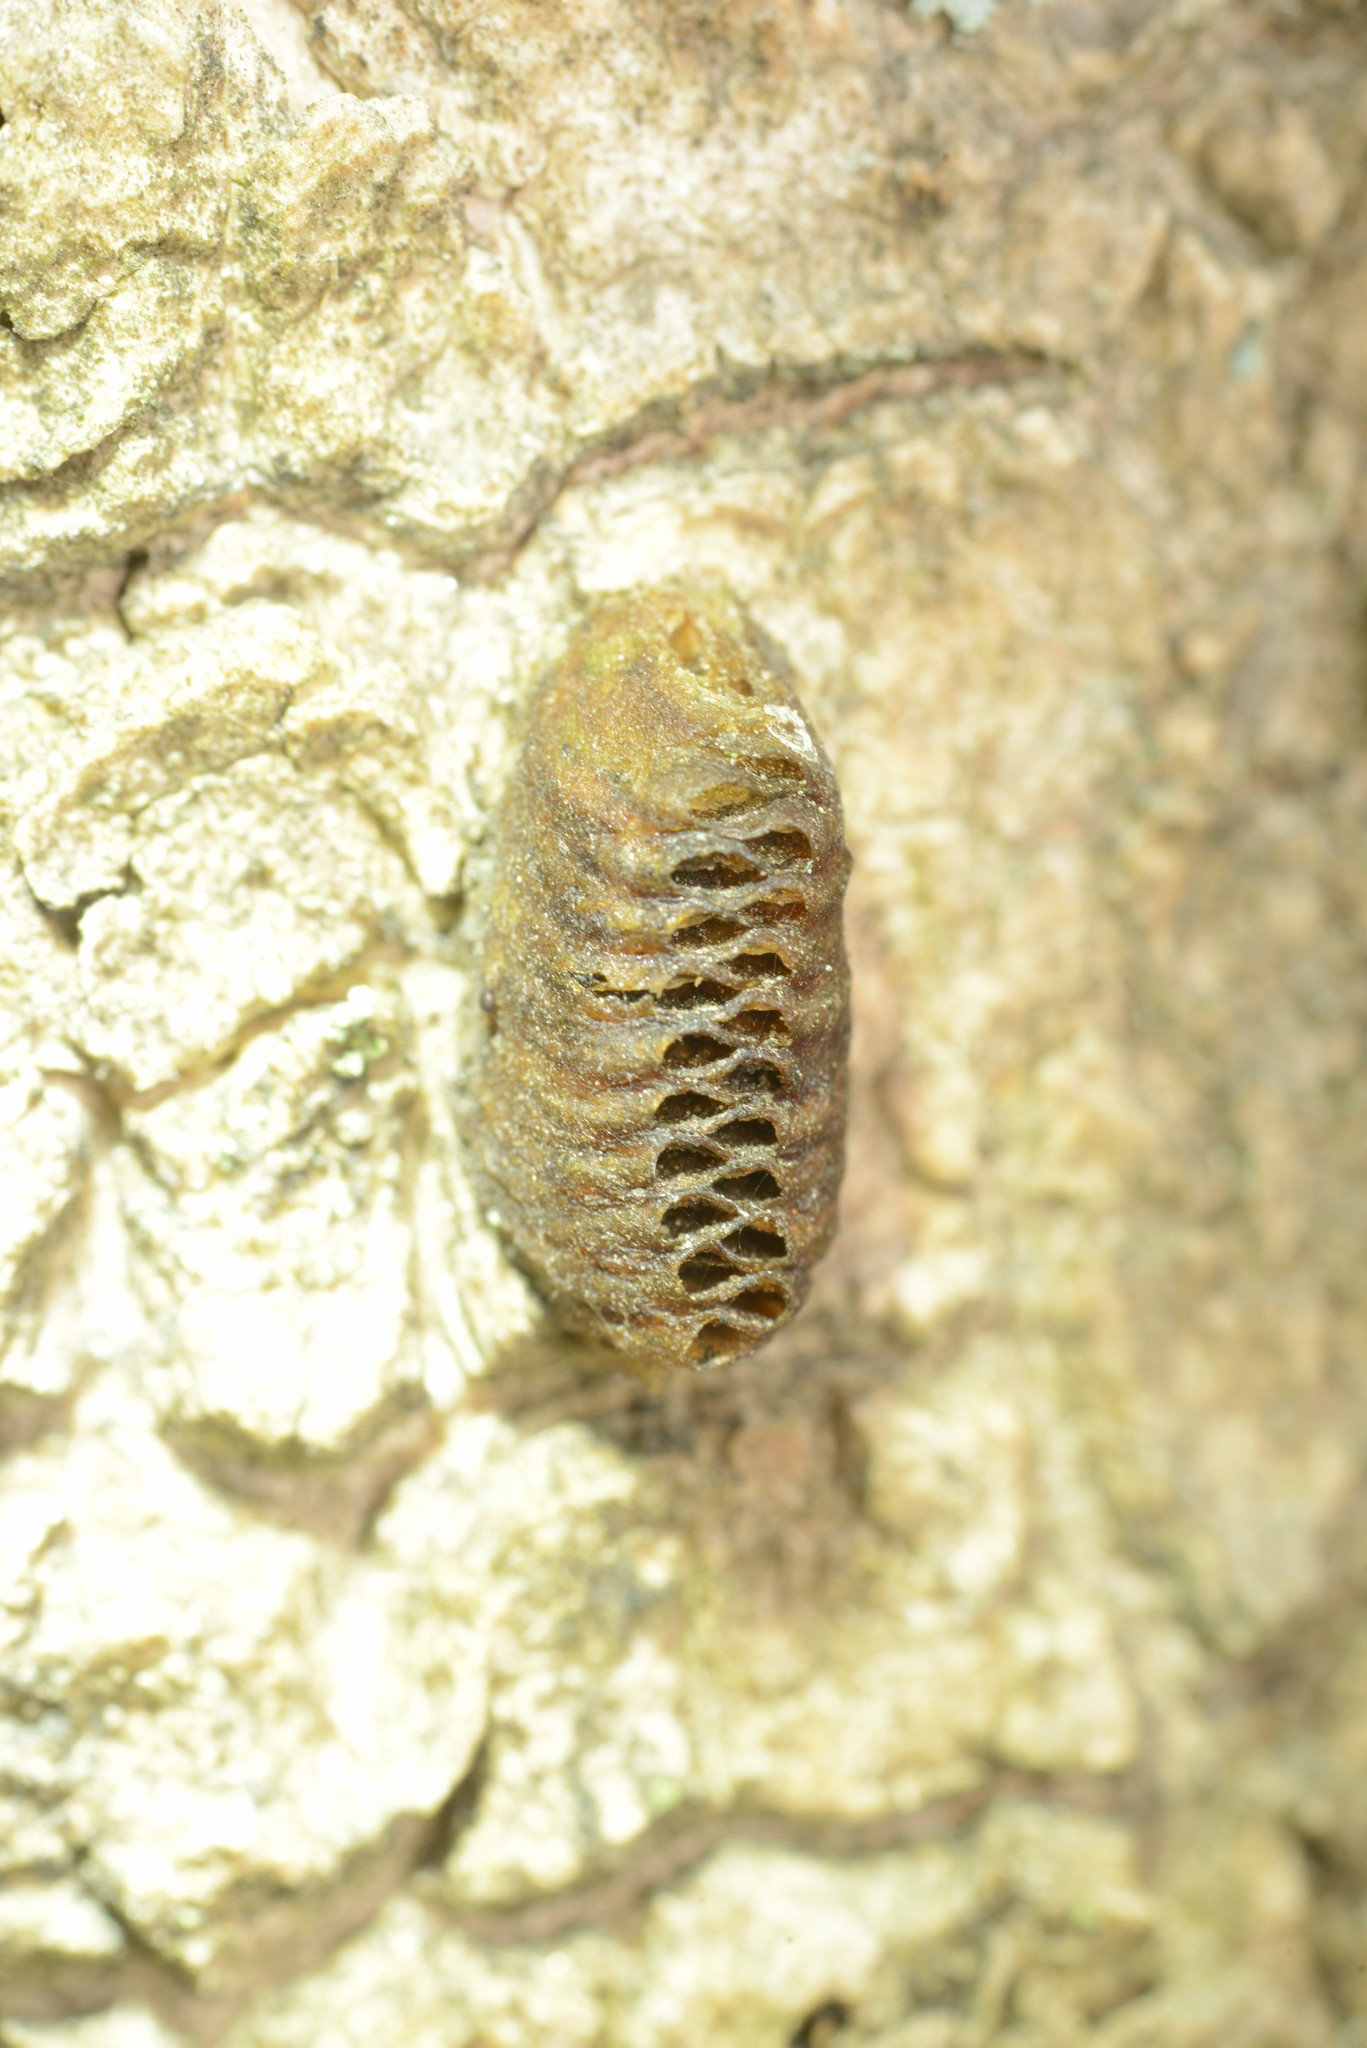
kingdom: Animalia
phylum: Arthropoda
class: Insecta
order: Mantodea
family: Mantidae
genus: Orthodera
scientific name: Orthodera novaezealandiae
